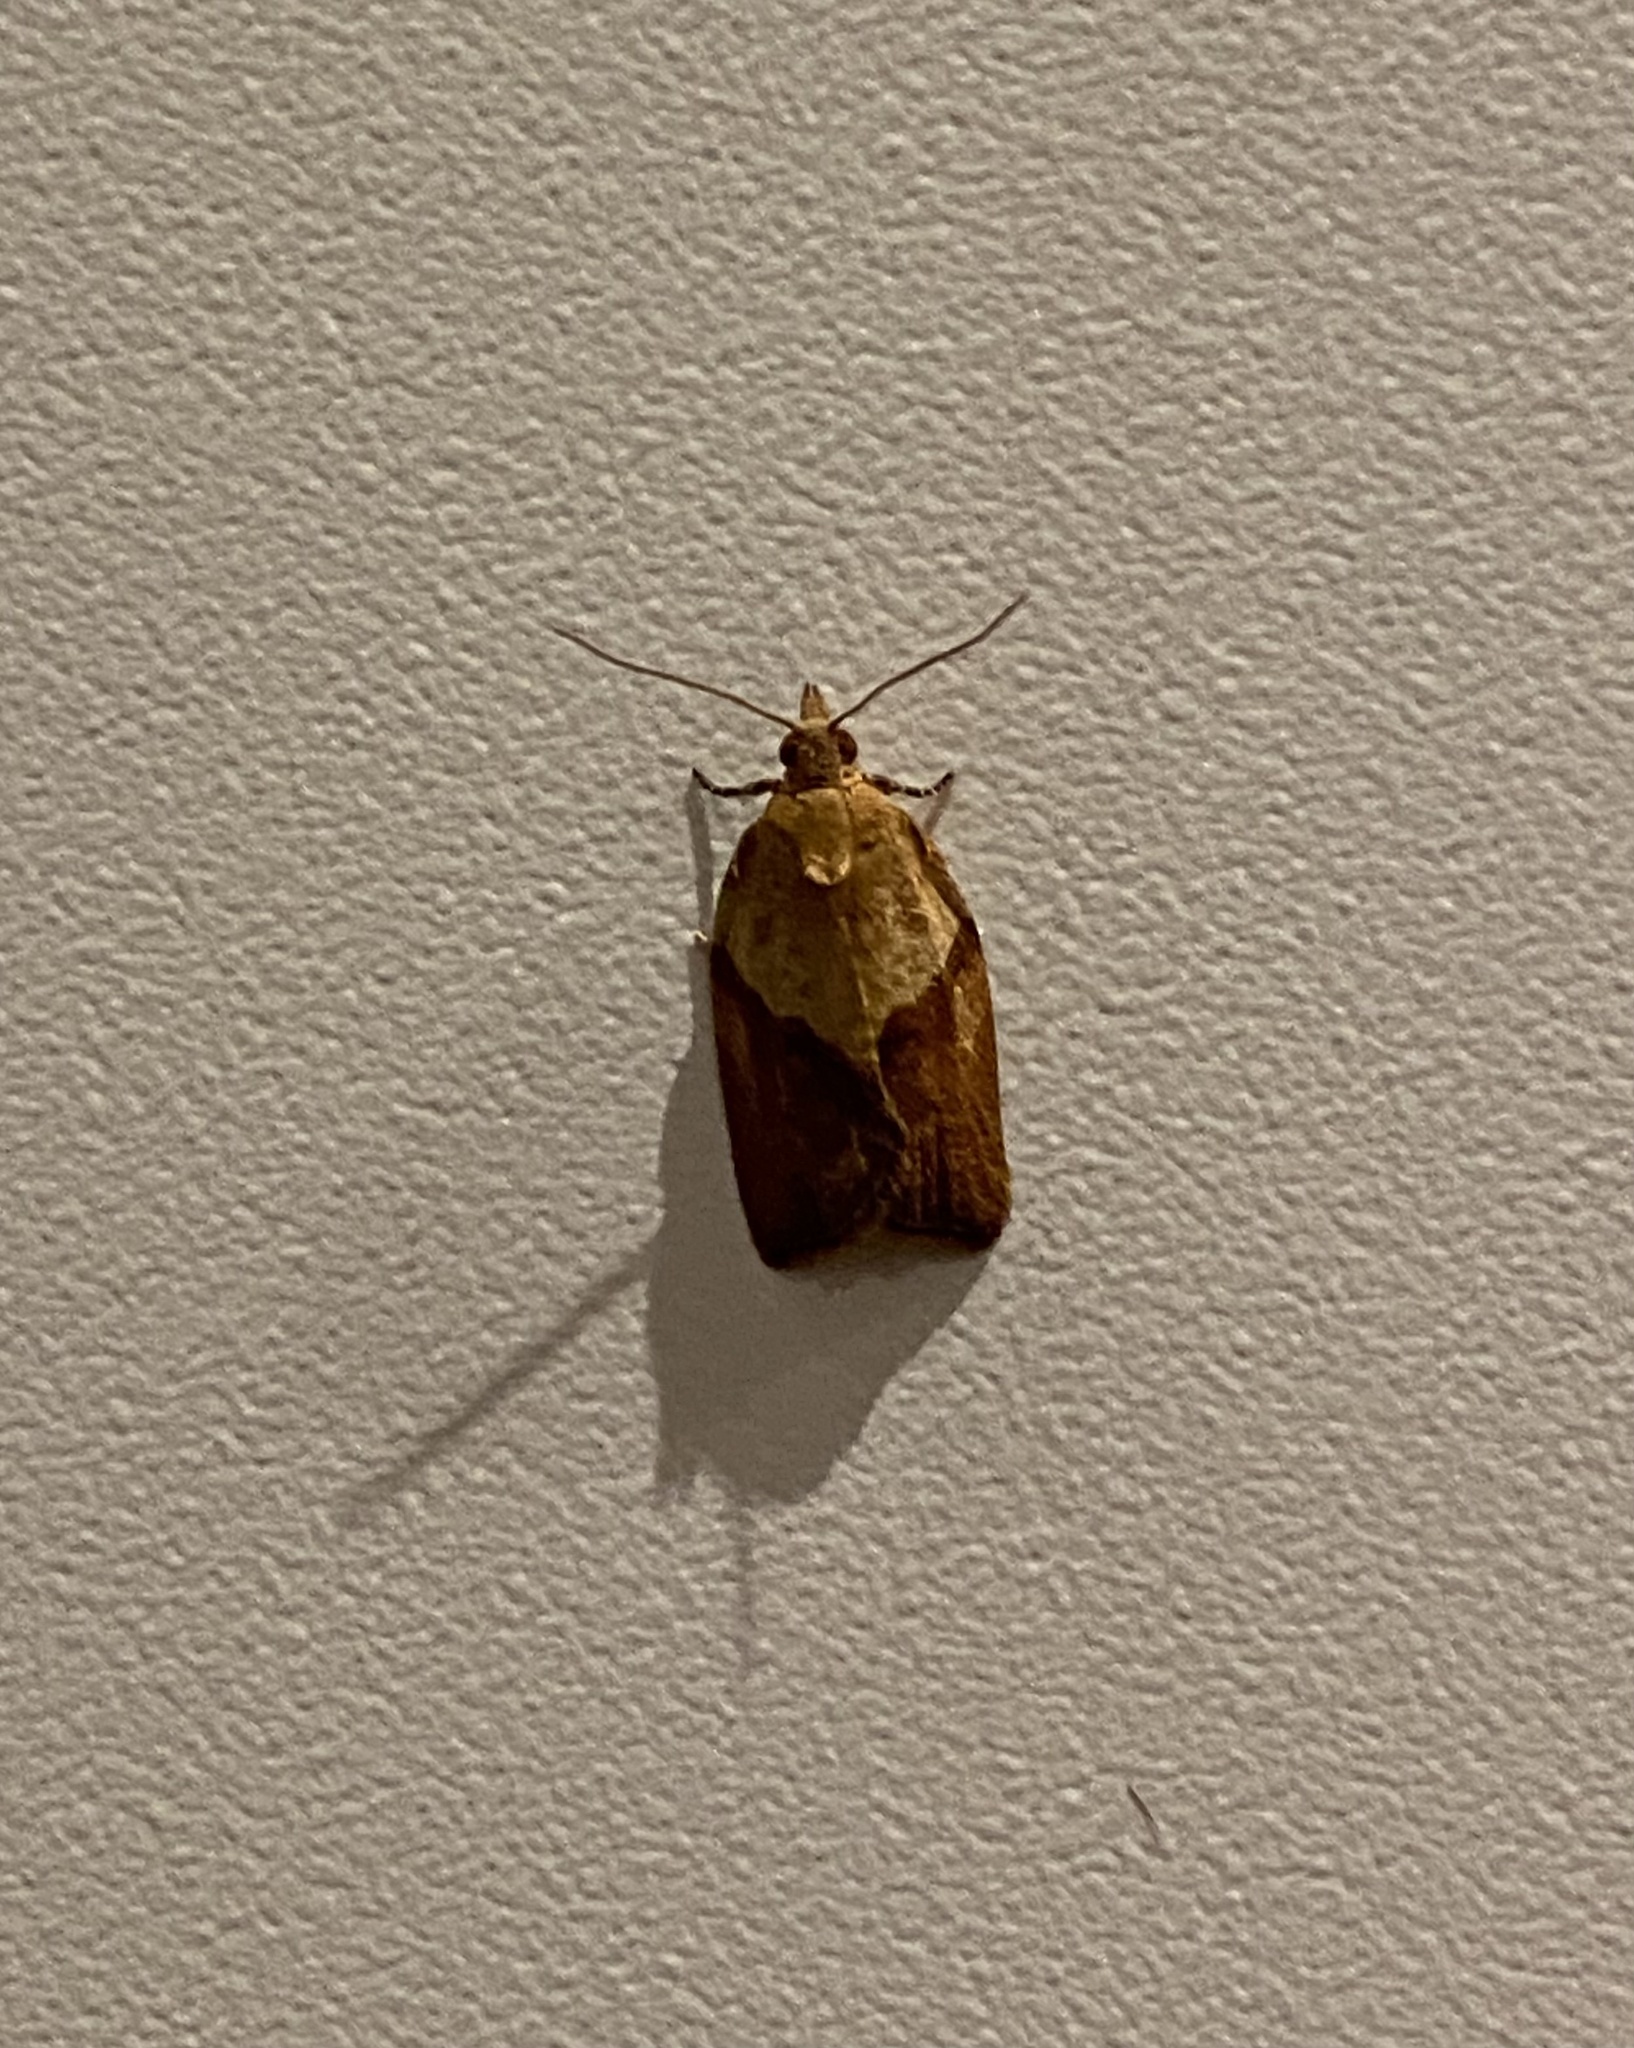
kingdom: Animalia
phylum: Arthropoda
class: Insecta
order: Lepidoptera
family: Tortricidae
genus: Epiphyas
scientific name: Epiphyas postvittana
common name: Light brown apple moth
